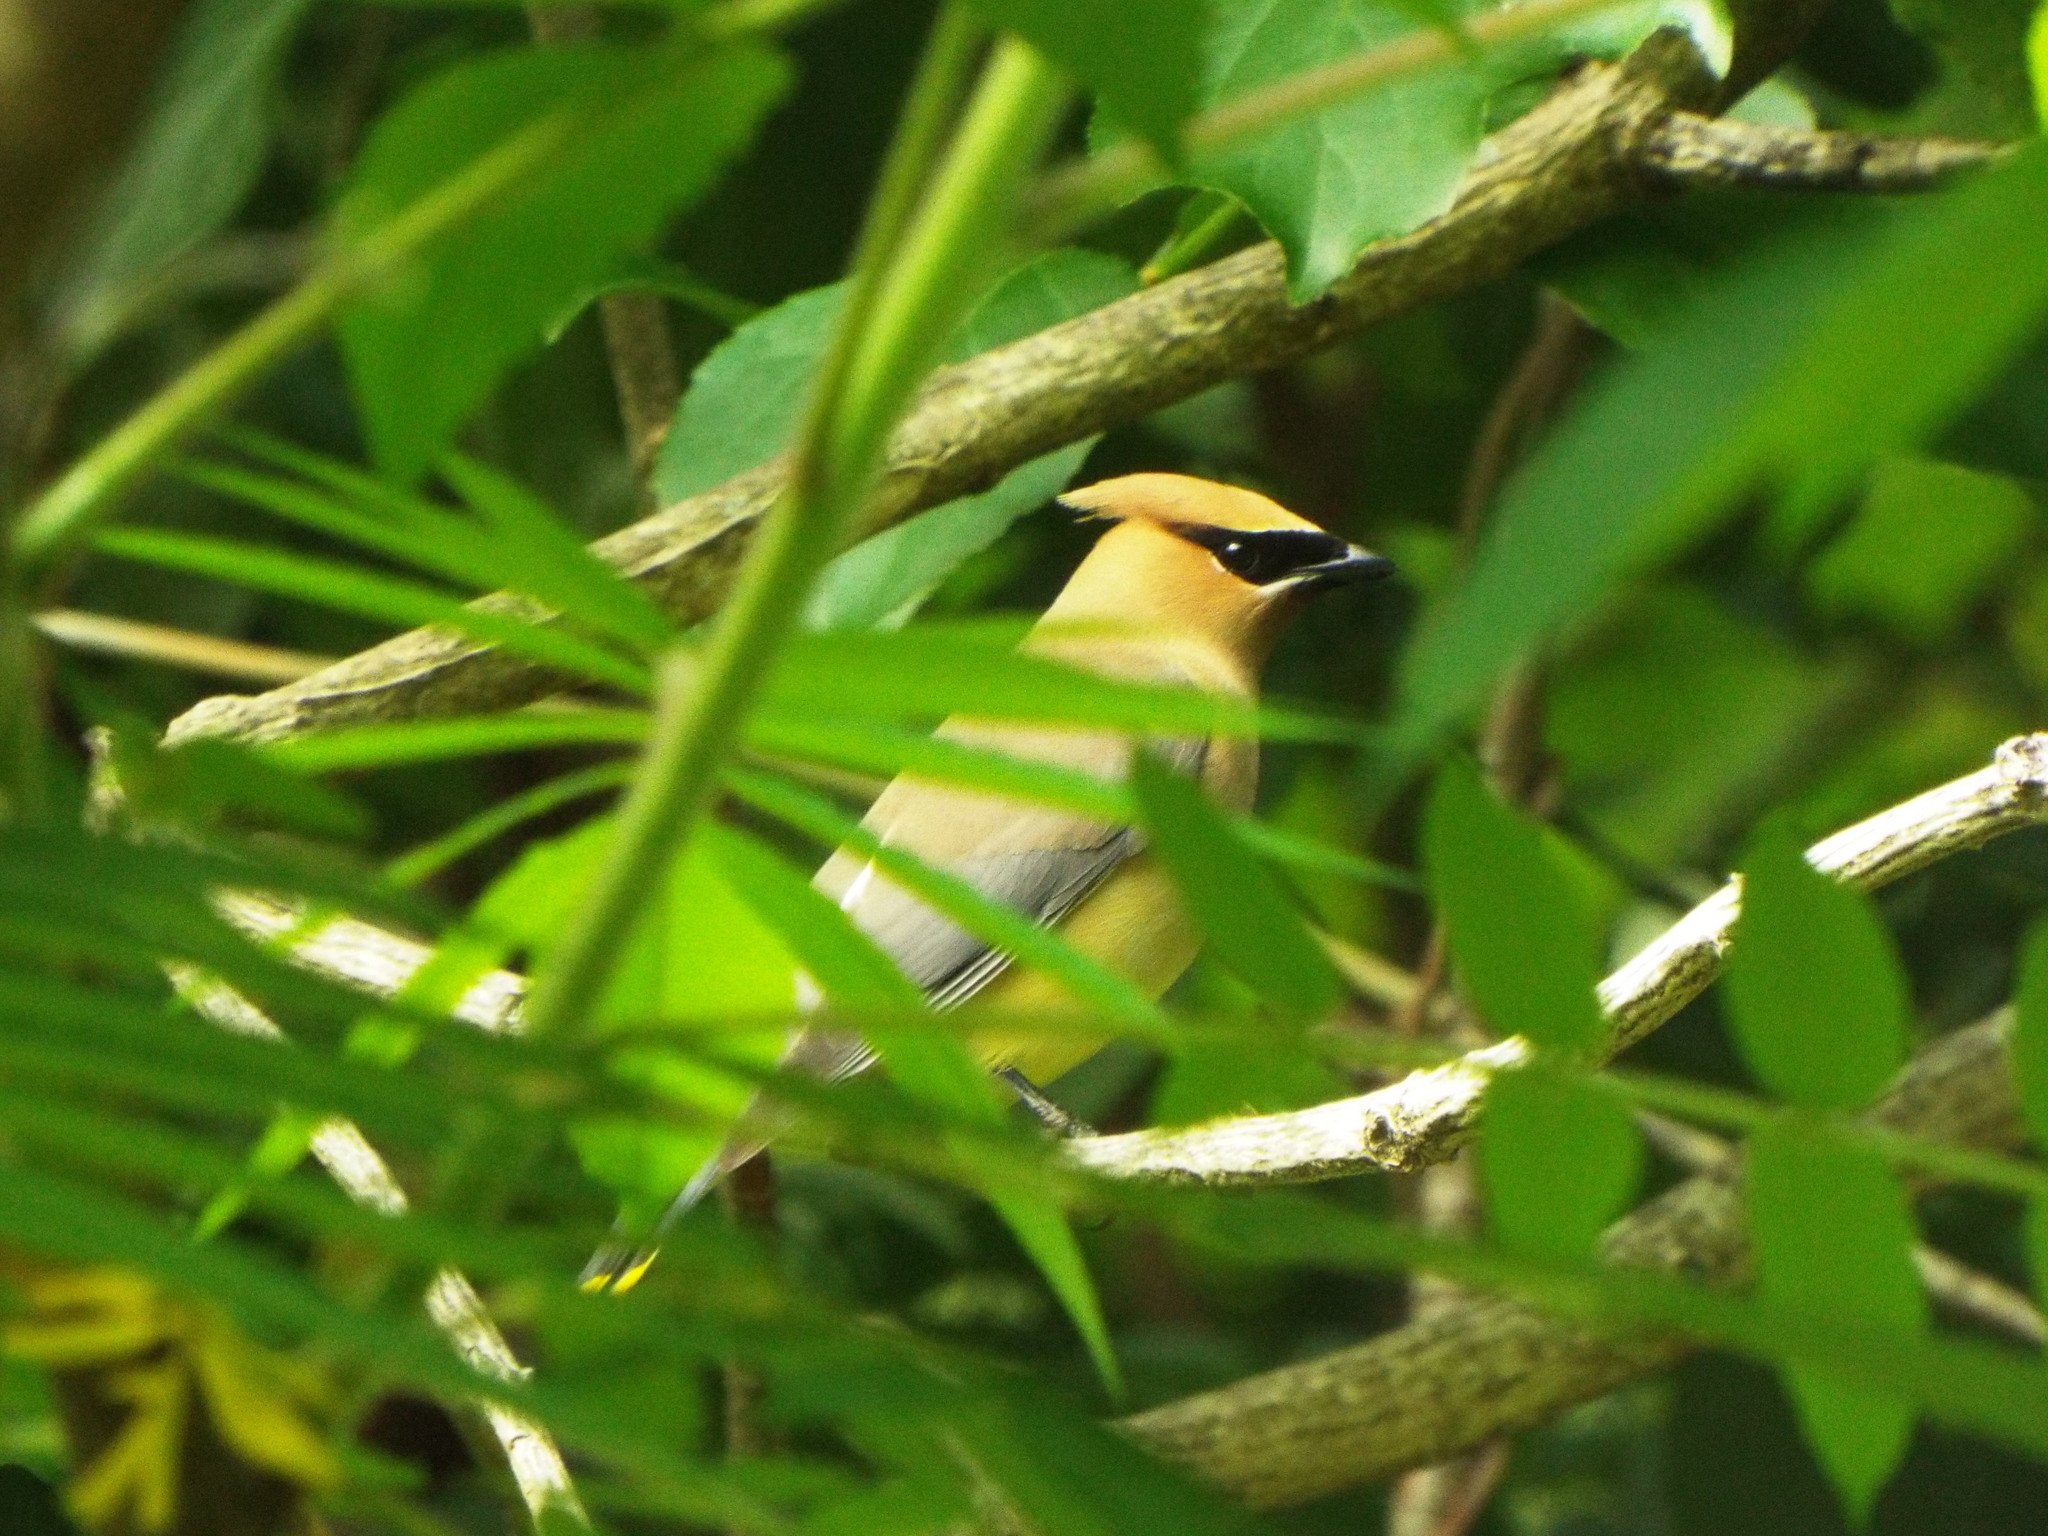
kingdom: Animalia
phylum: Chordata
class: Aves
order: Passeriformes
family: Bombycillidae
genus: Bombycilla
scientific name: Bombycilla cedrorum
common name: Cedar waxwing
